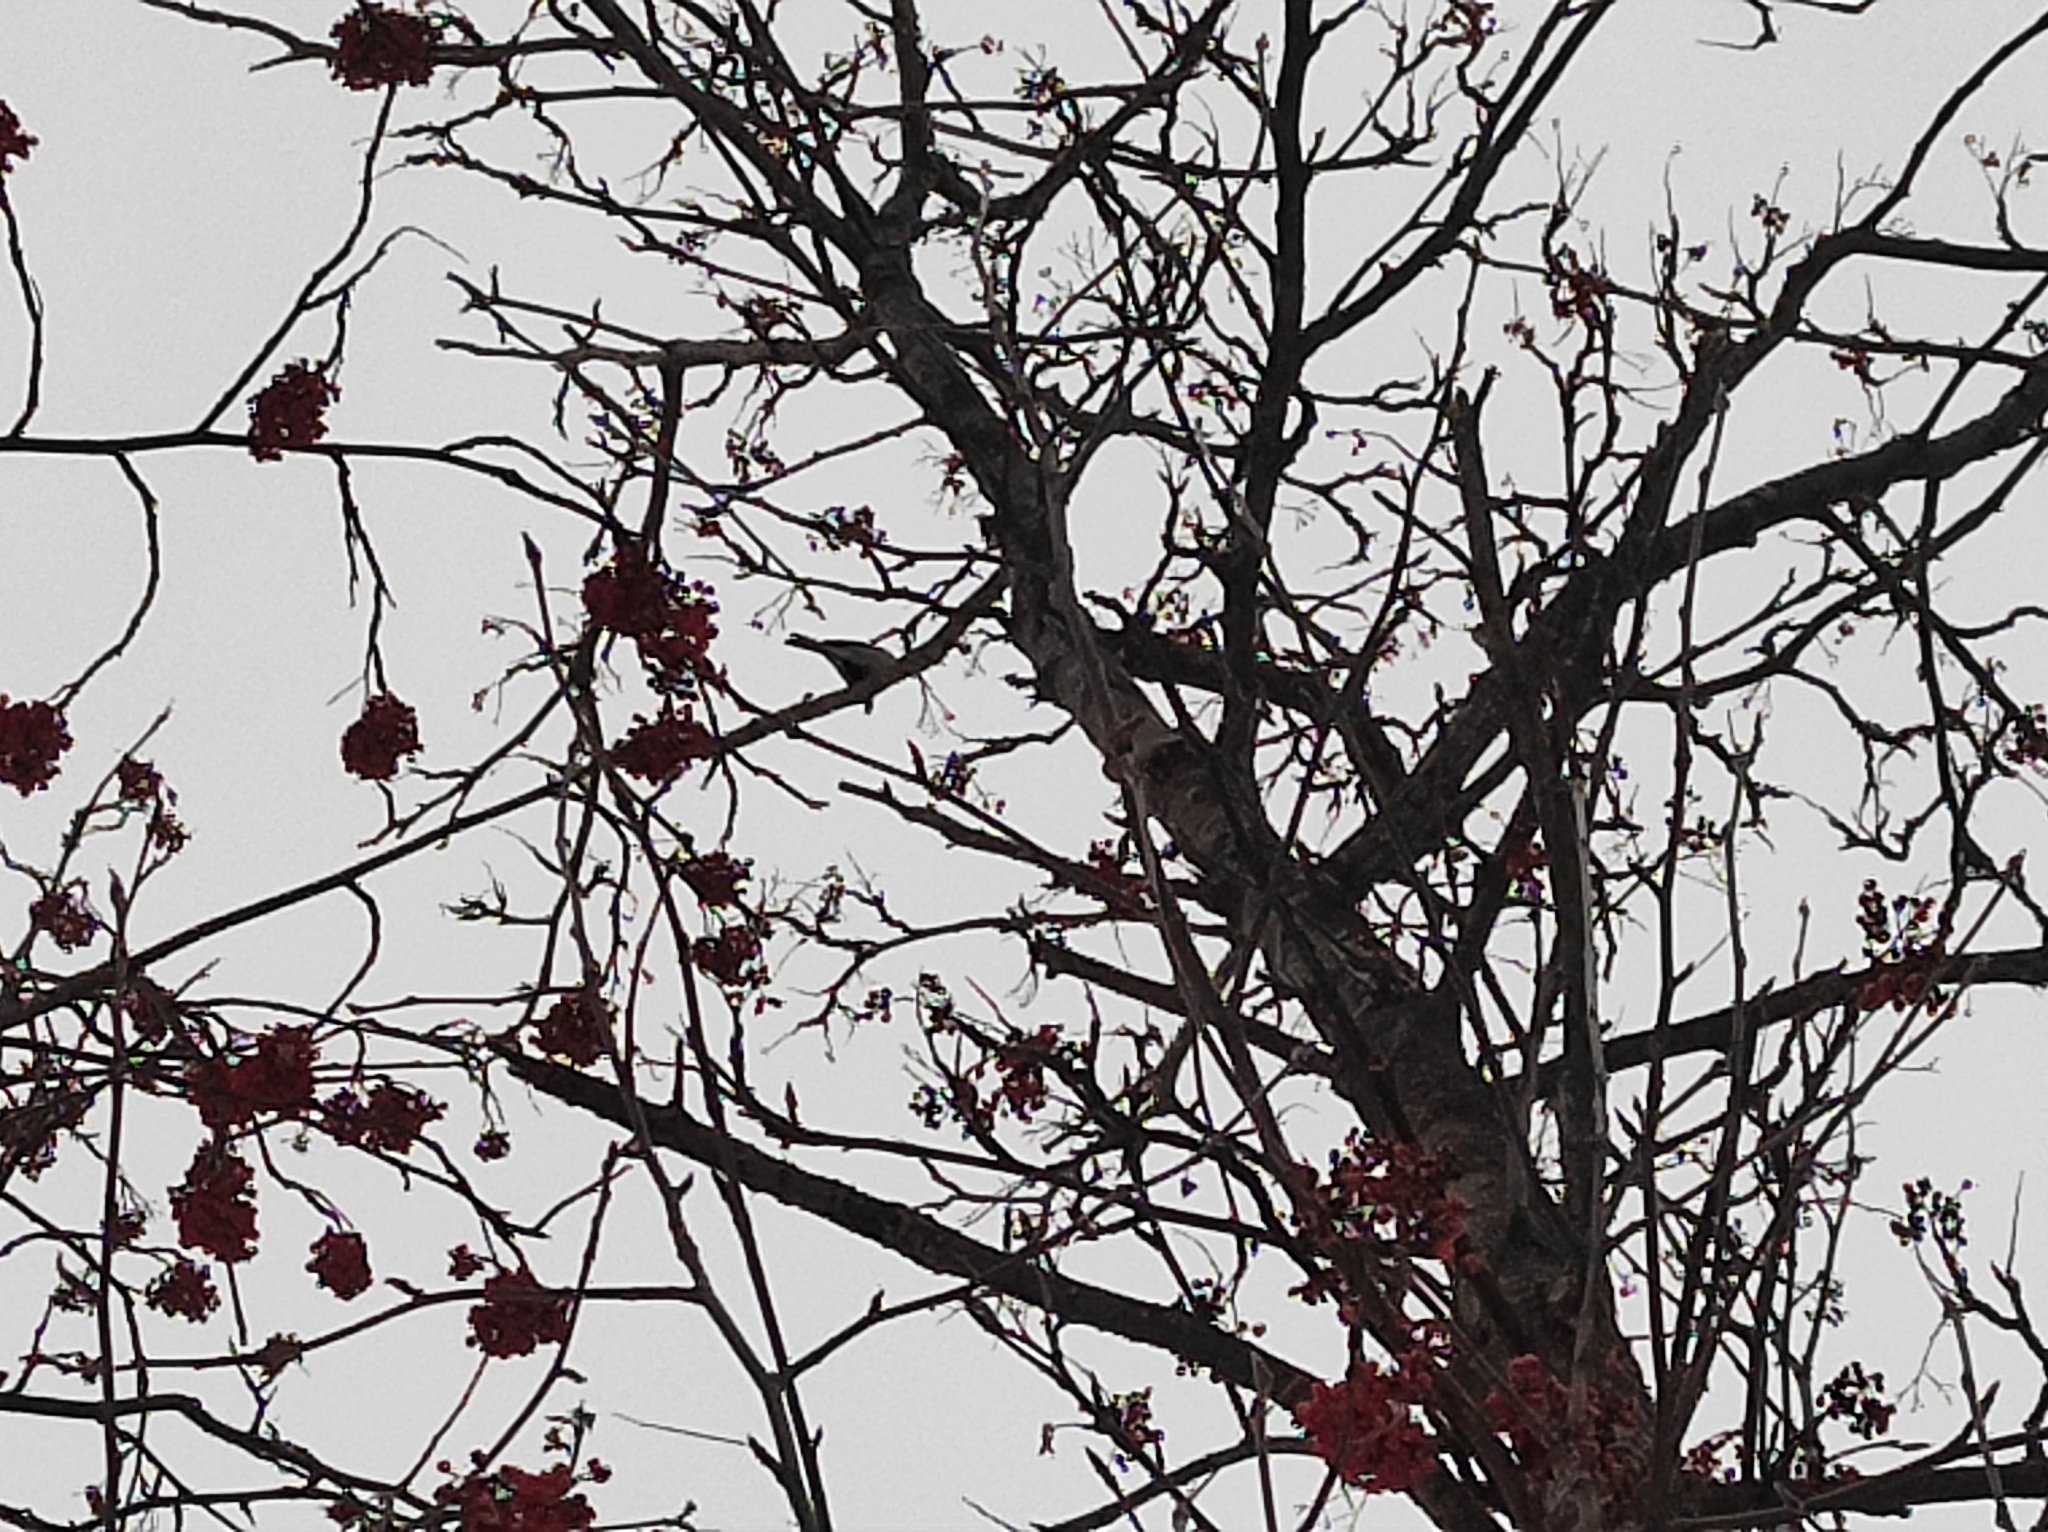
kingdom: Animalia
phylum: Chordata
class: Aves
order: Passeriformes
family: Paridae
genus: Parus
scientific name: Parus major
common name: Great tit
